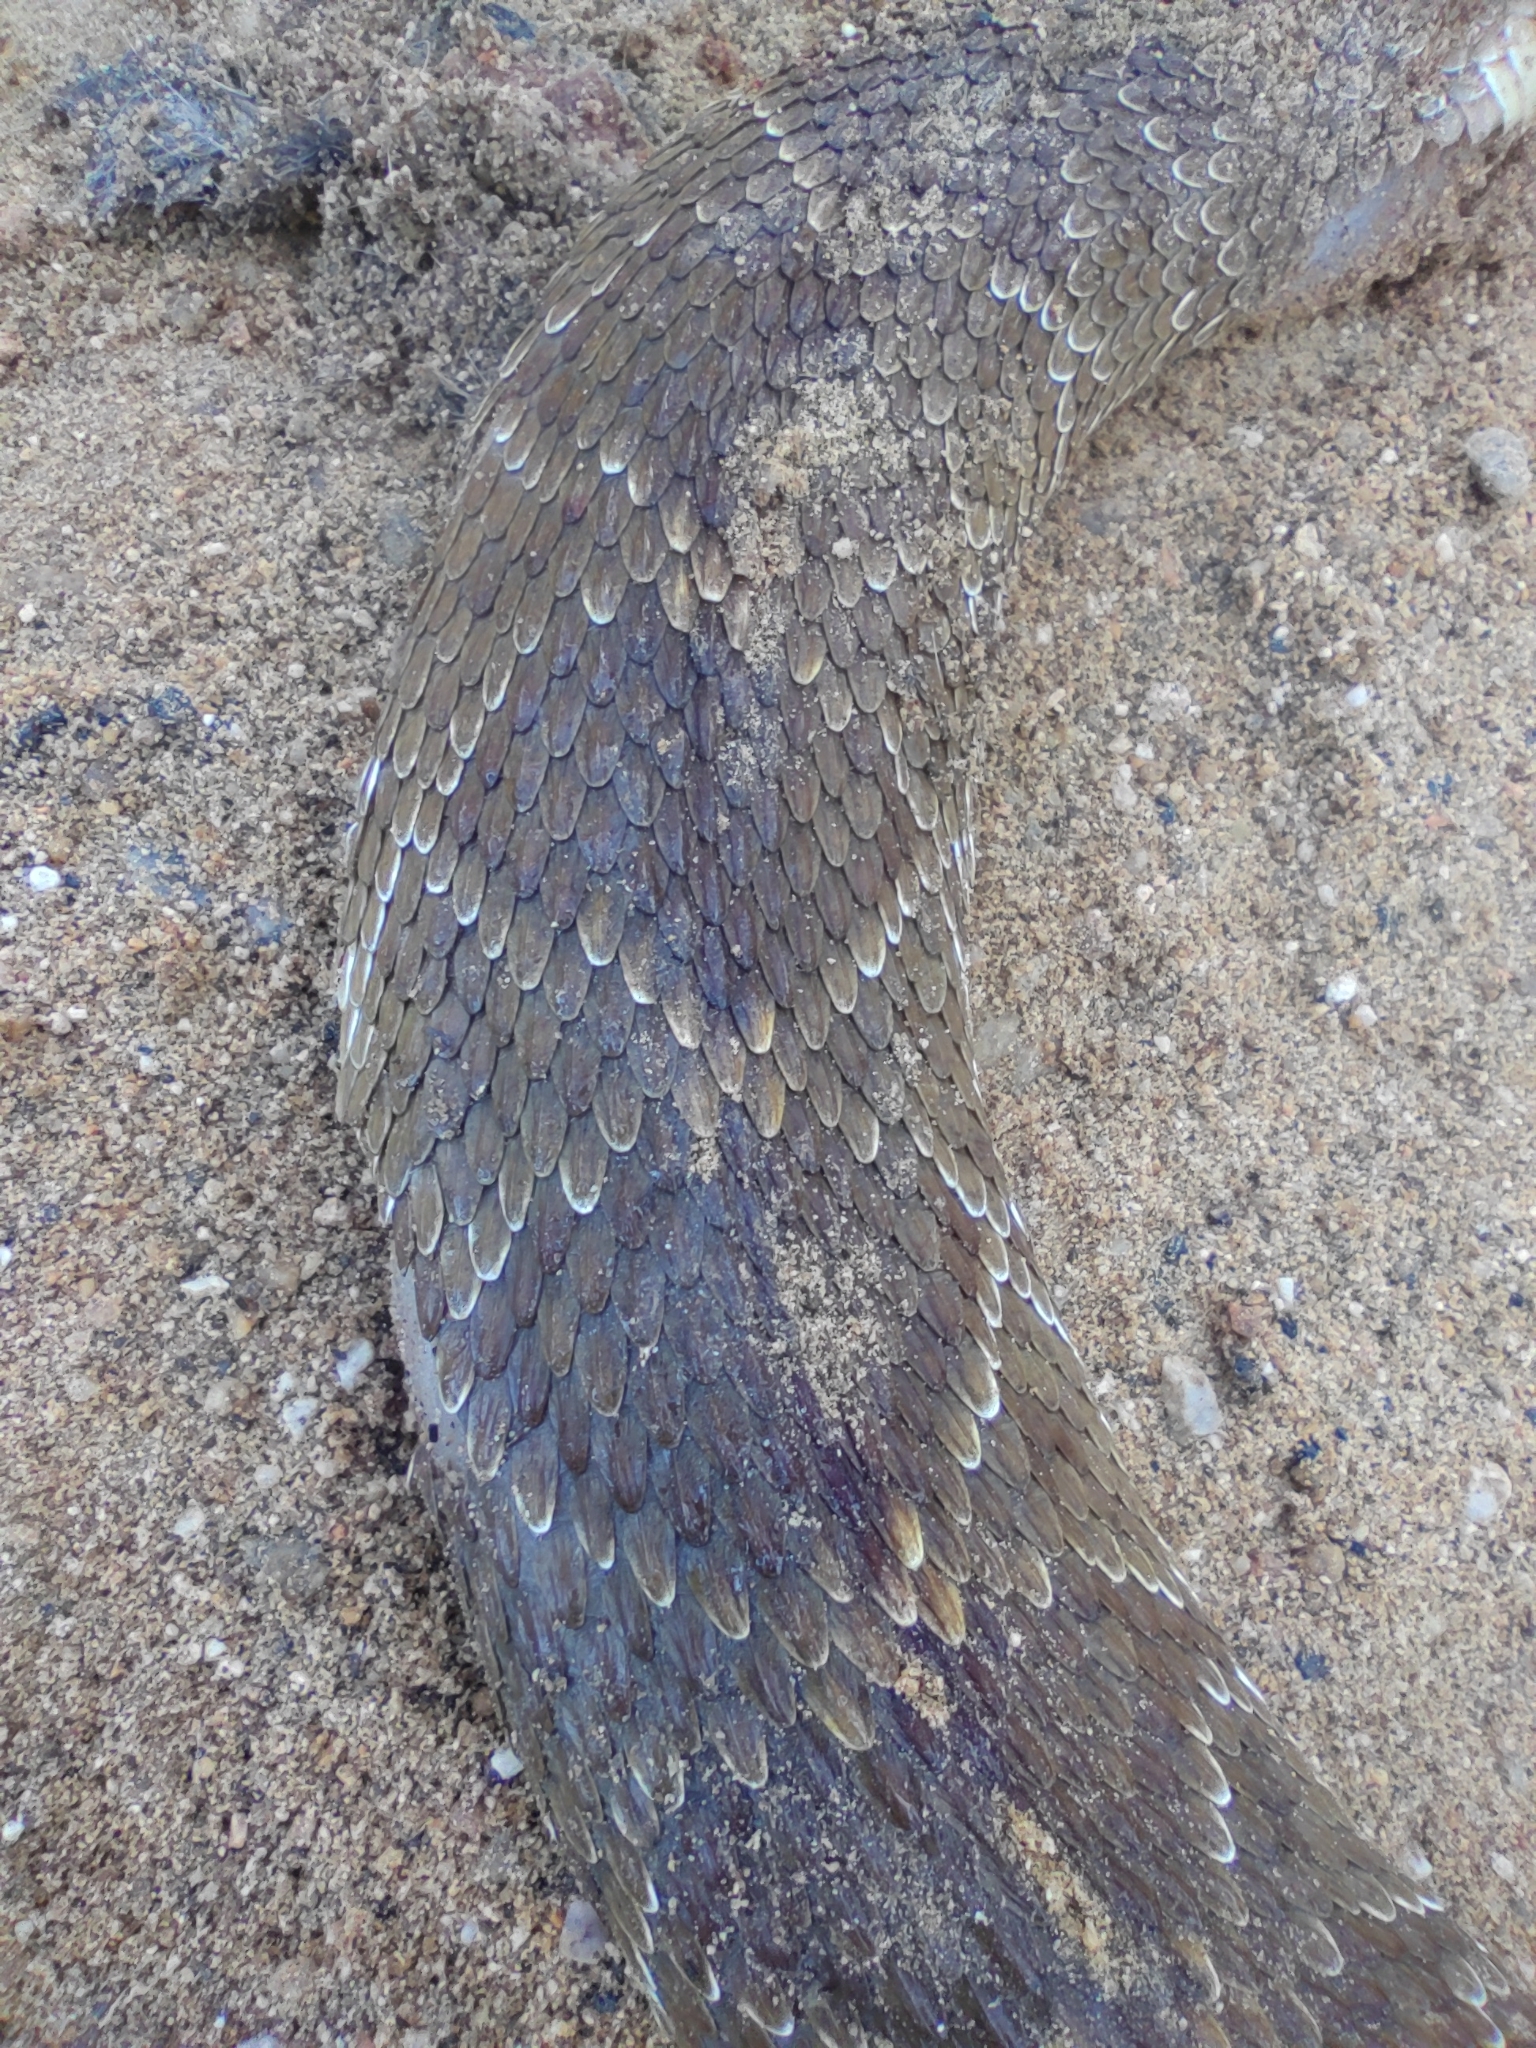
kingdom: Animalia
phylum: Chordata
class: Squamata
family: Viperidae
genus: Crotalus
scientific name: Crotalus molossus
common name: Black tailed rattlesnake
